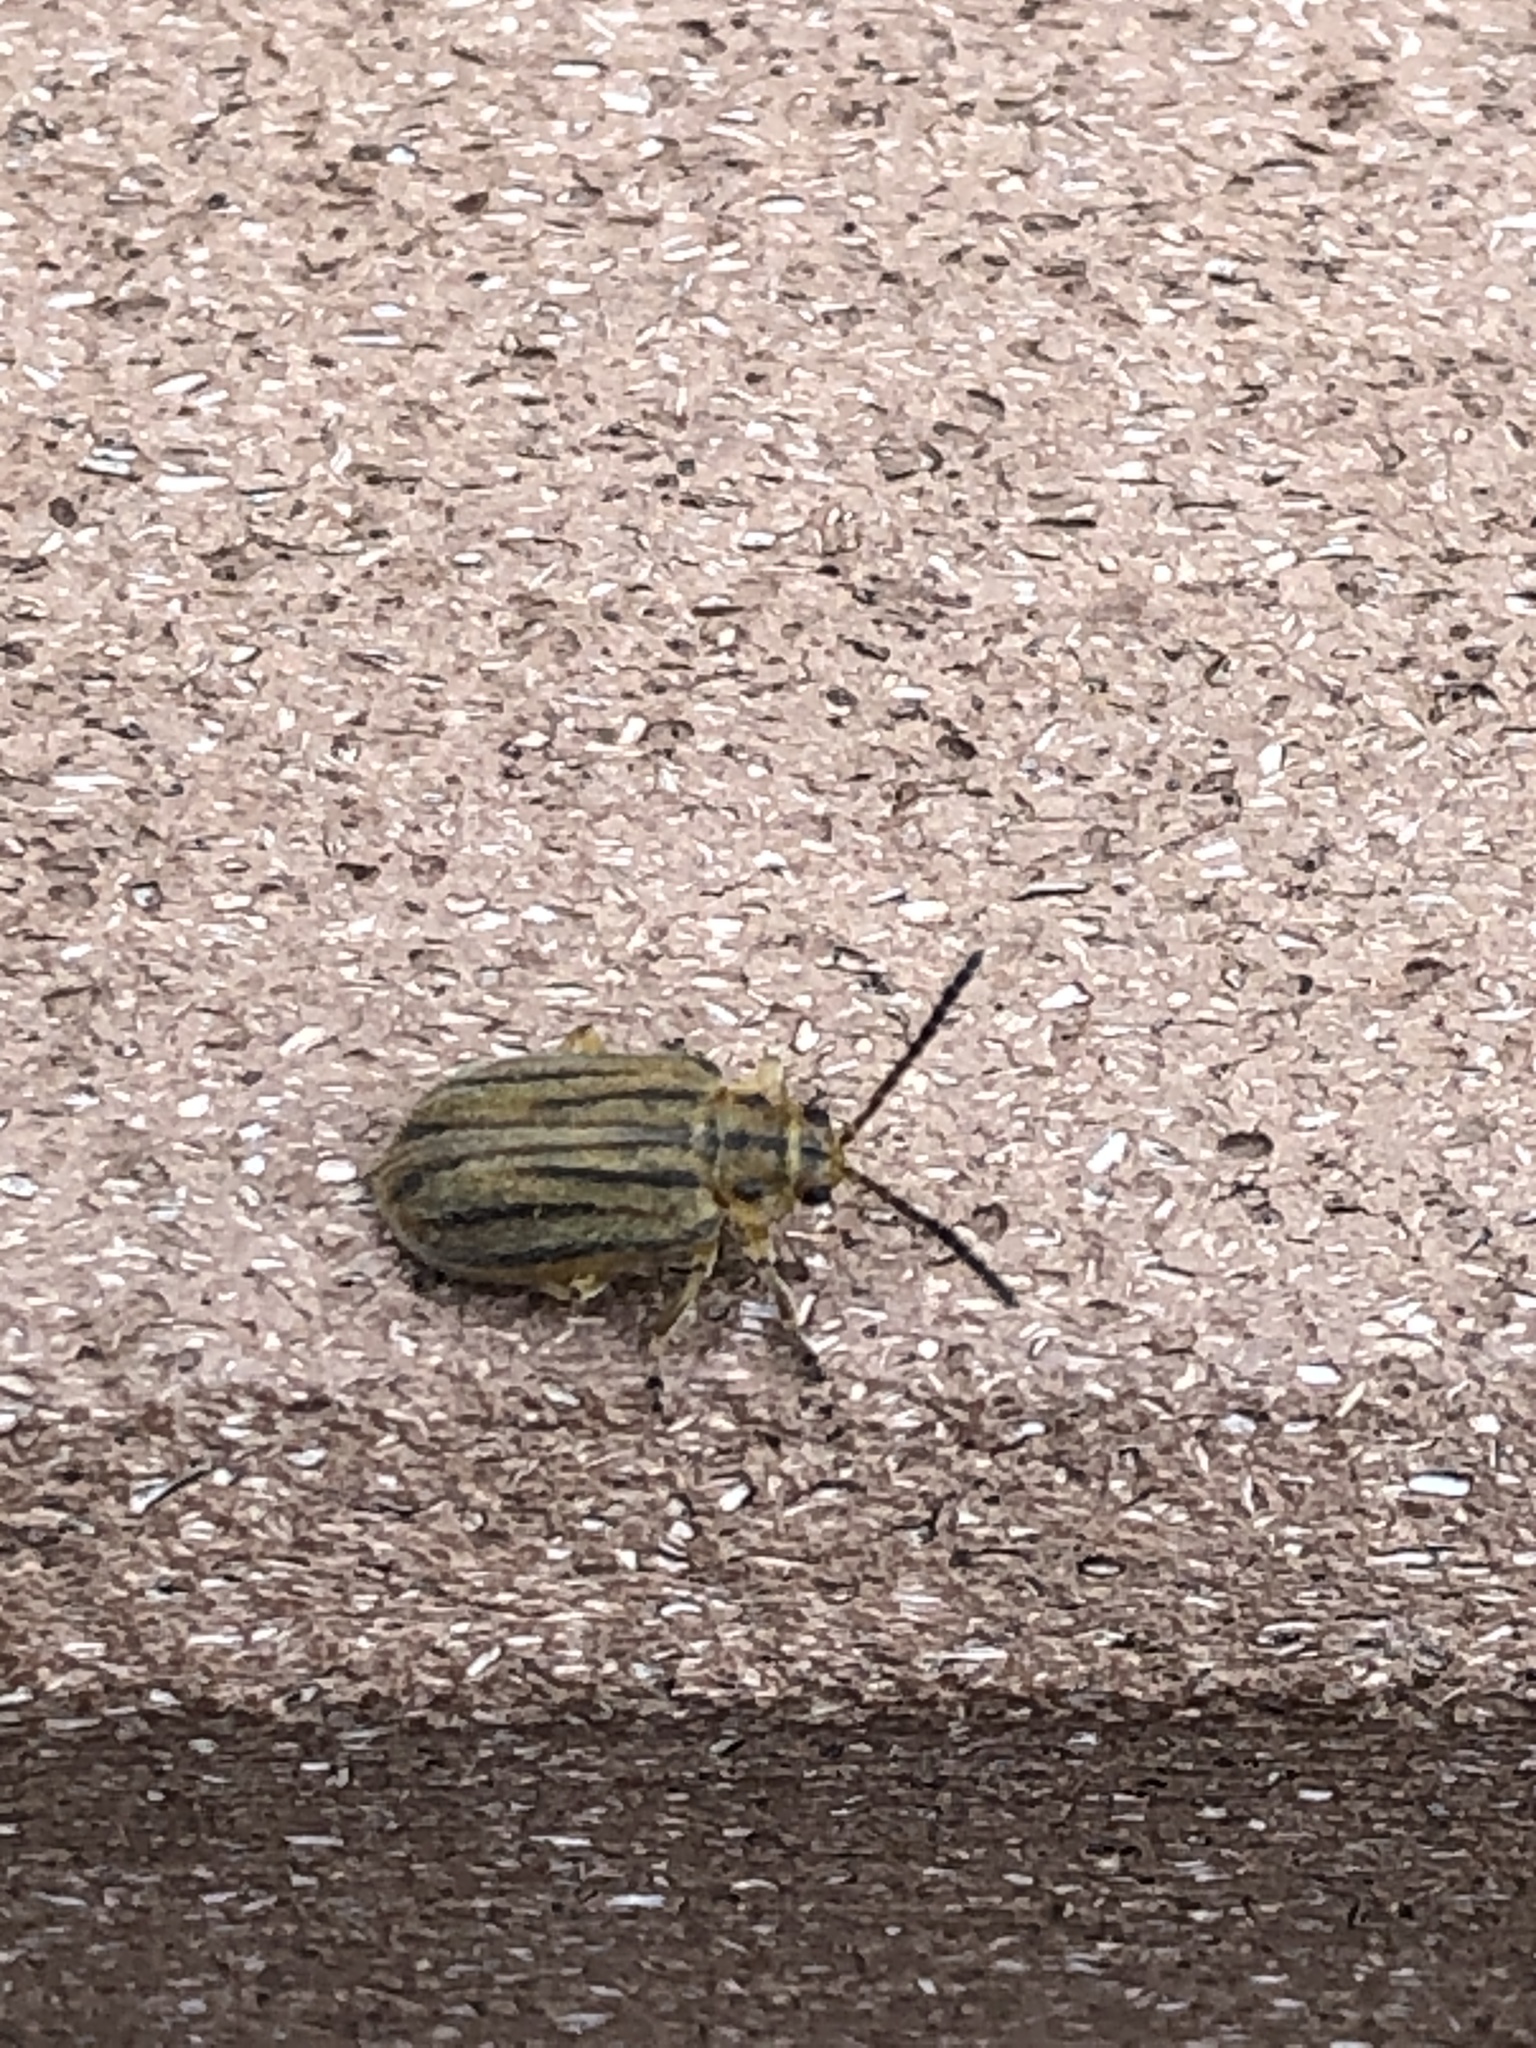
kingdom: Animalia
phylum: Arthropoda
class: Insecta
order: Coleoptera
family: Chrysomelidae
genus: Ophraella
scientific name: Ophraella communa
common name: Ragweed leaf beetle
